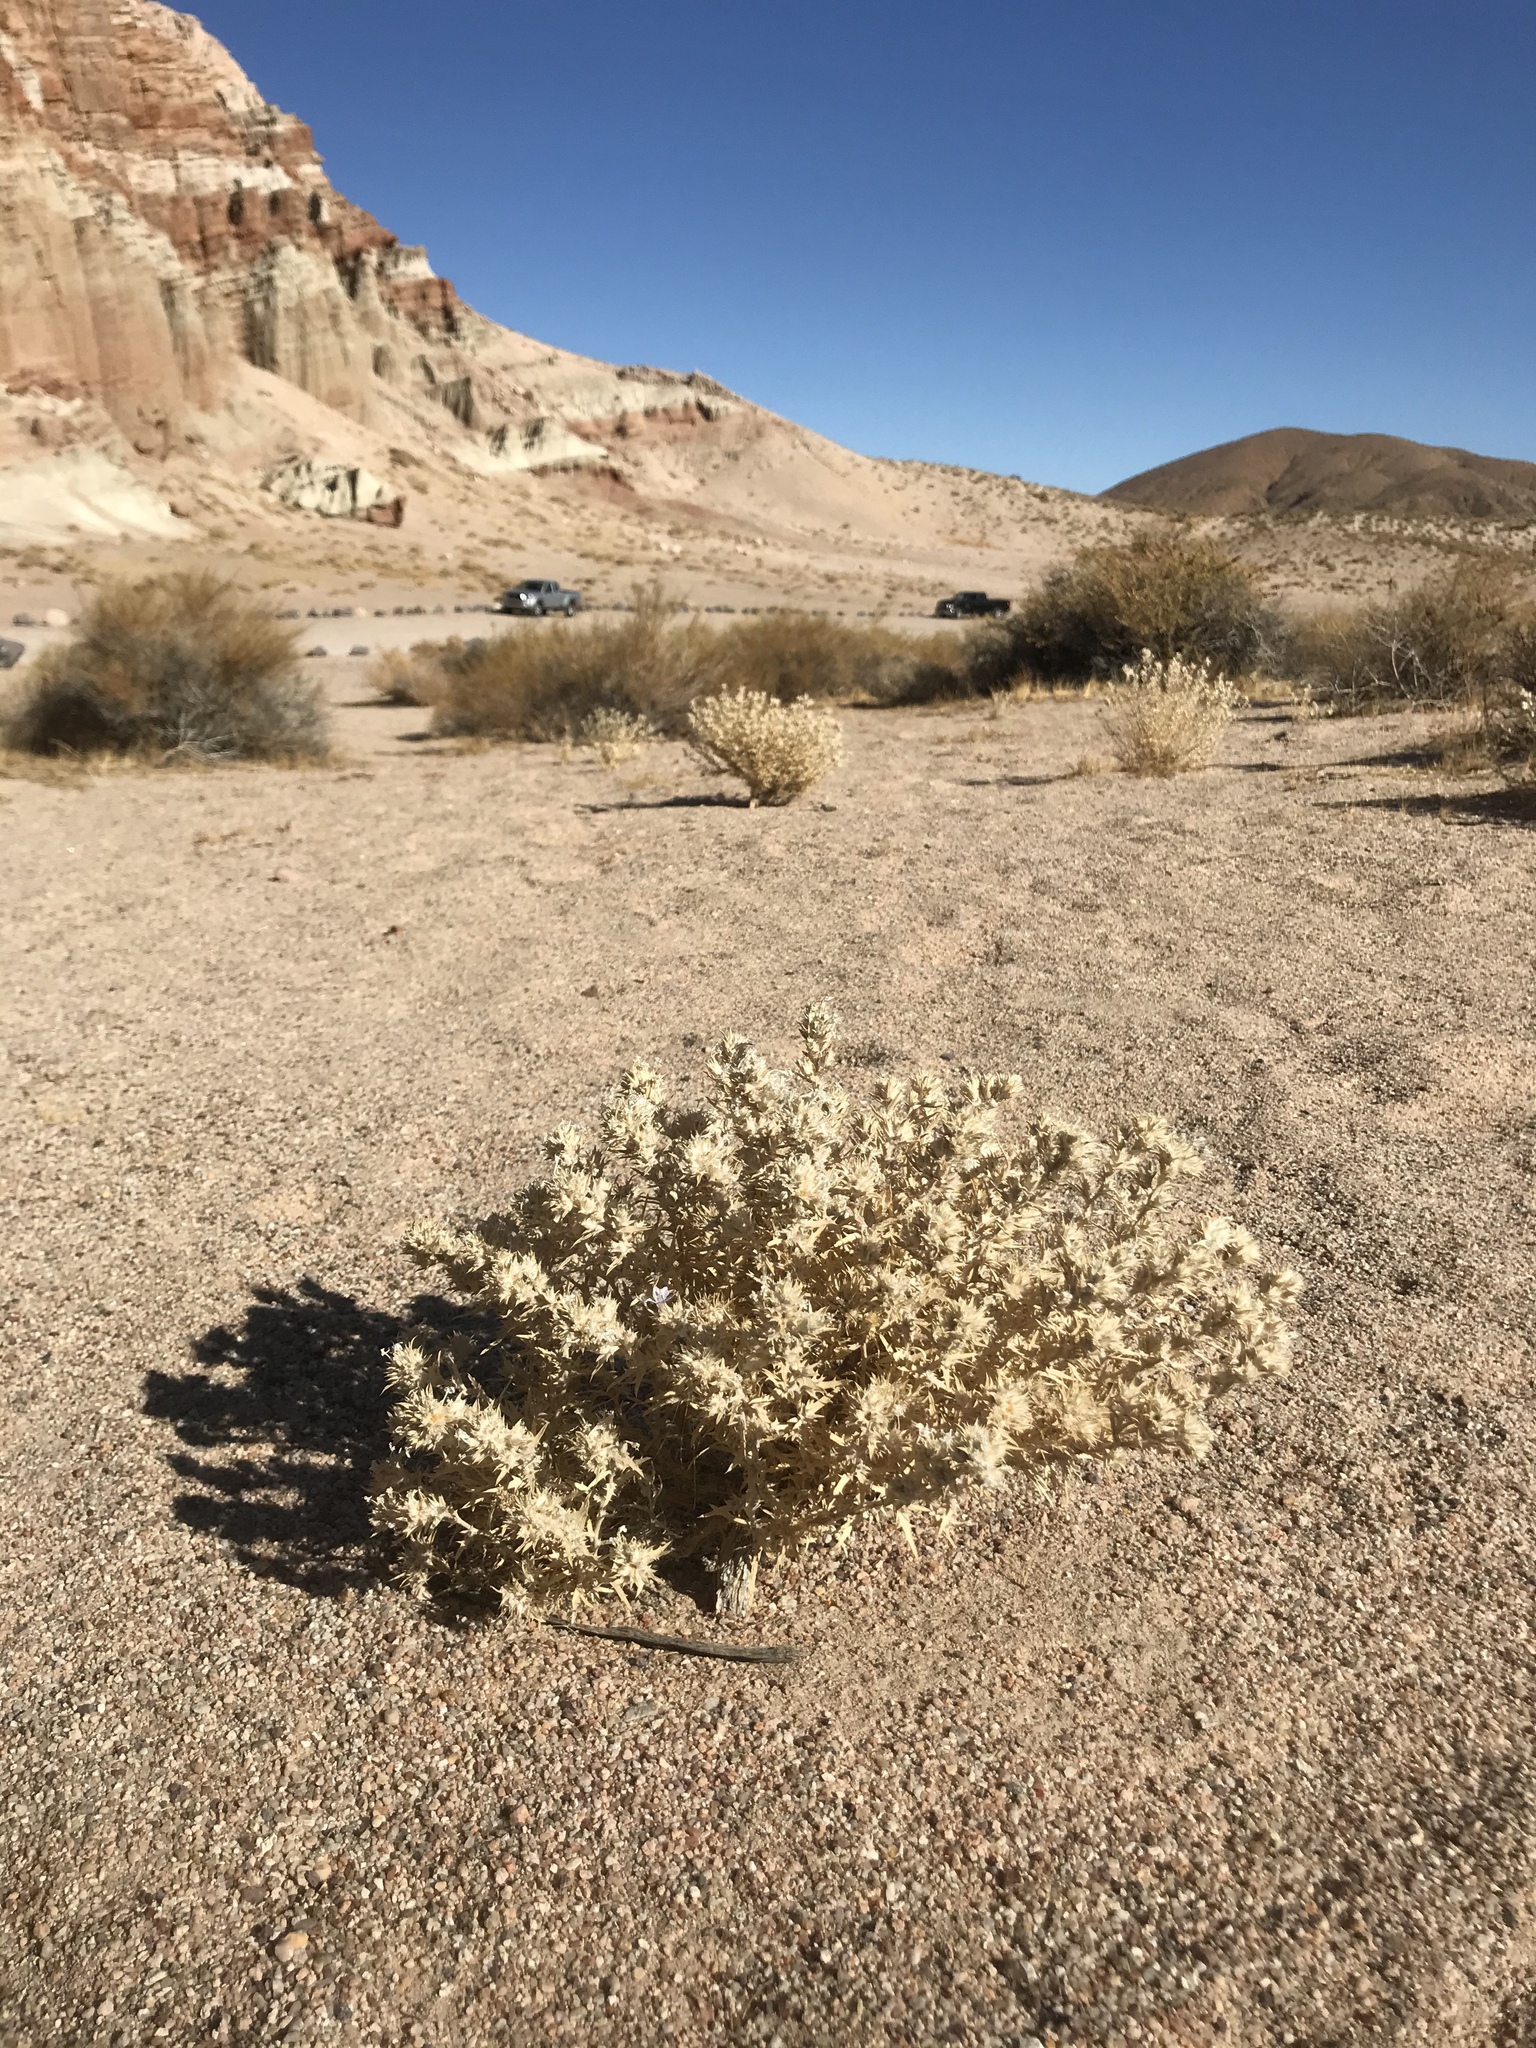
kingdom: Plantae
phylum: Tracheophyta
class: Magnoliopsida
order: Ericales
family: Polemoniaceae
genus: Eriastrum
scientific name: Eriastrum densifolium
